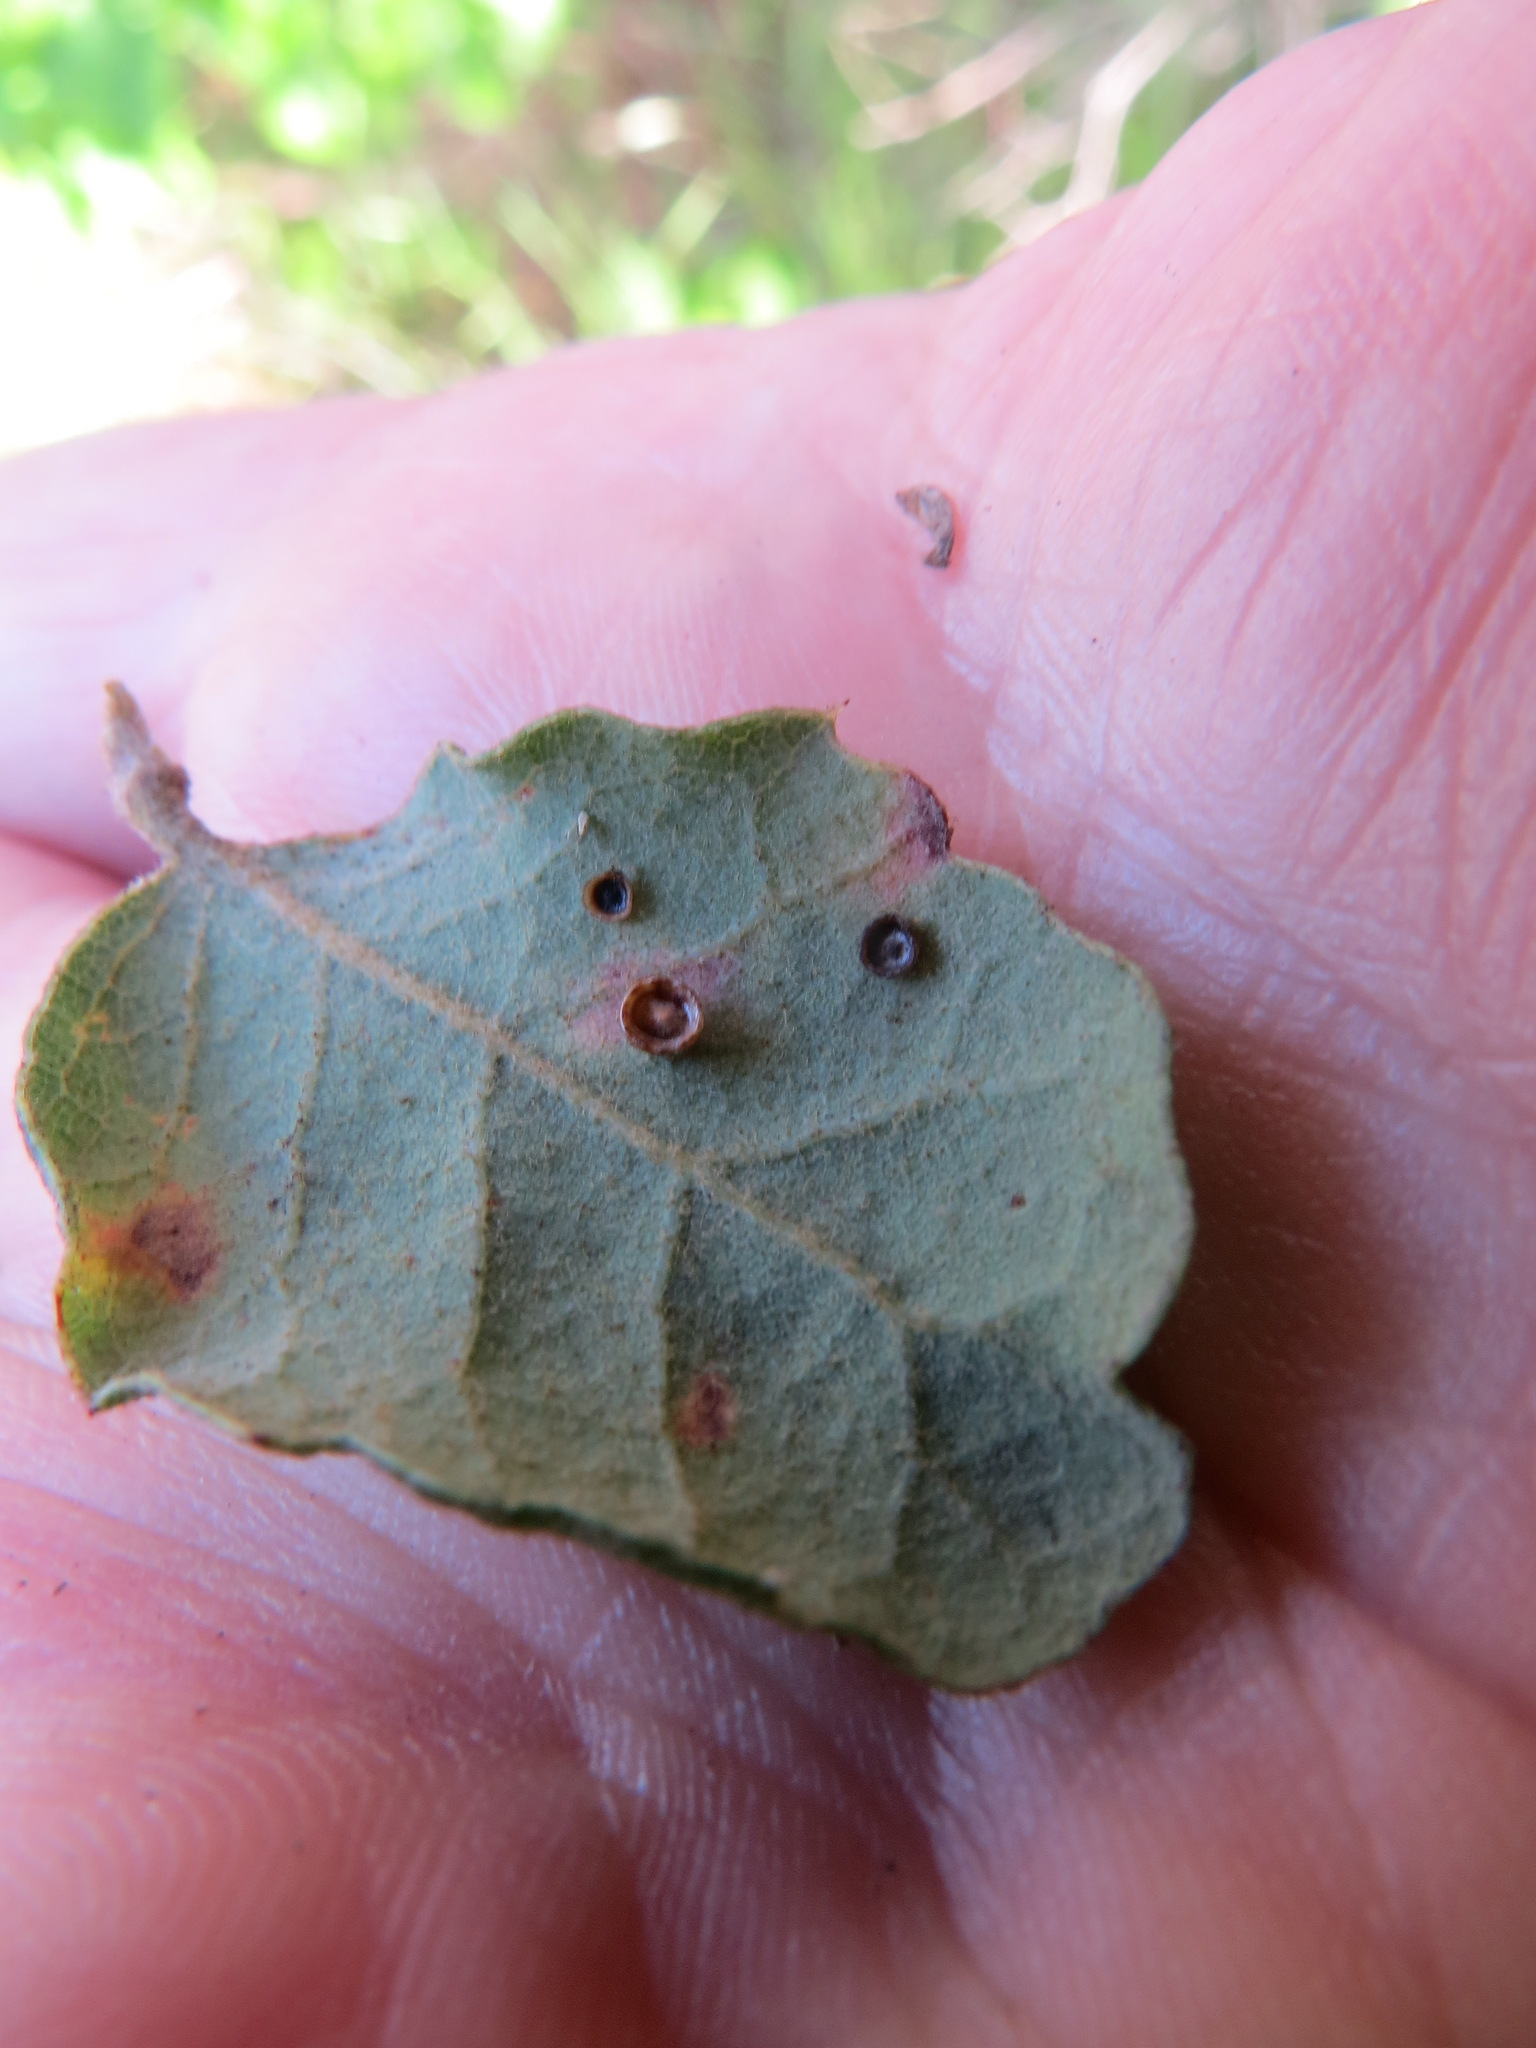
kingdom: Animalia
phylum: Arthropoda
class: Insecta
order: Hymenoptera
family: Cynipidae
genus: Andricus
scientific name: Andricus
